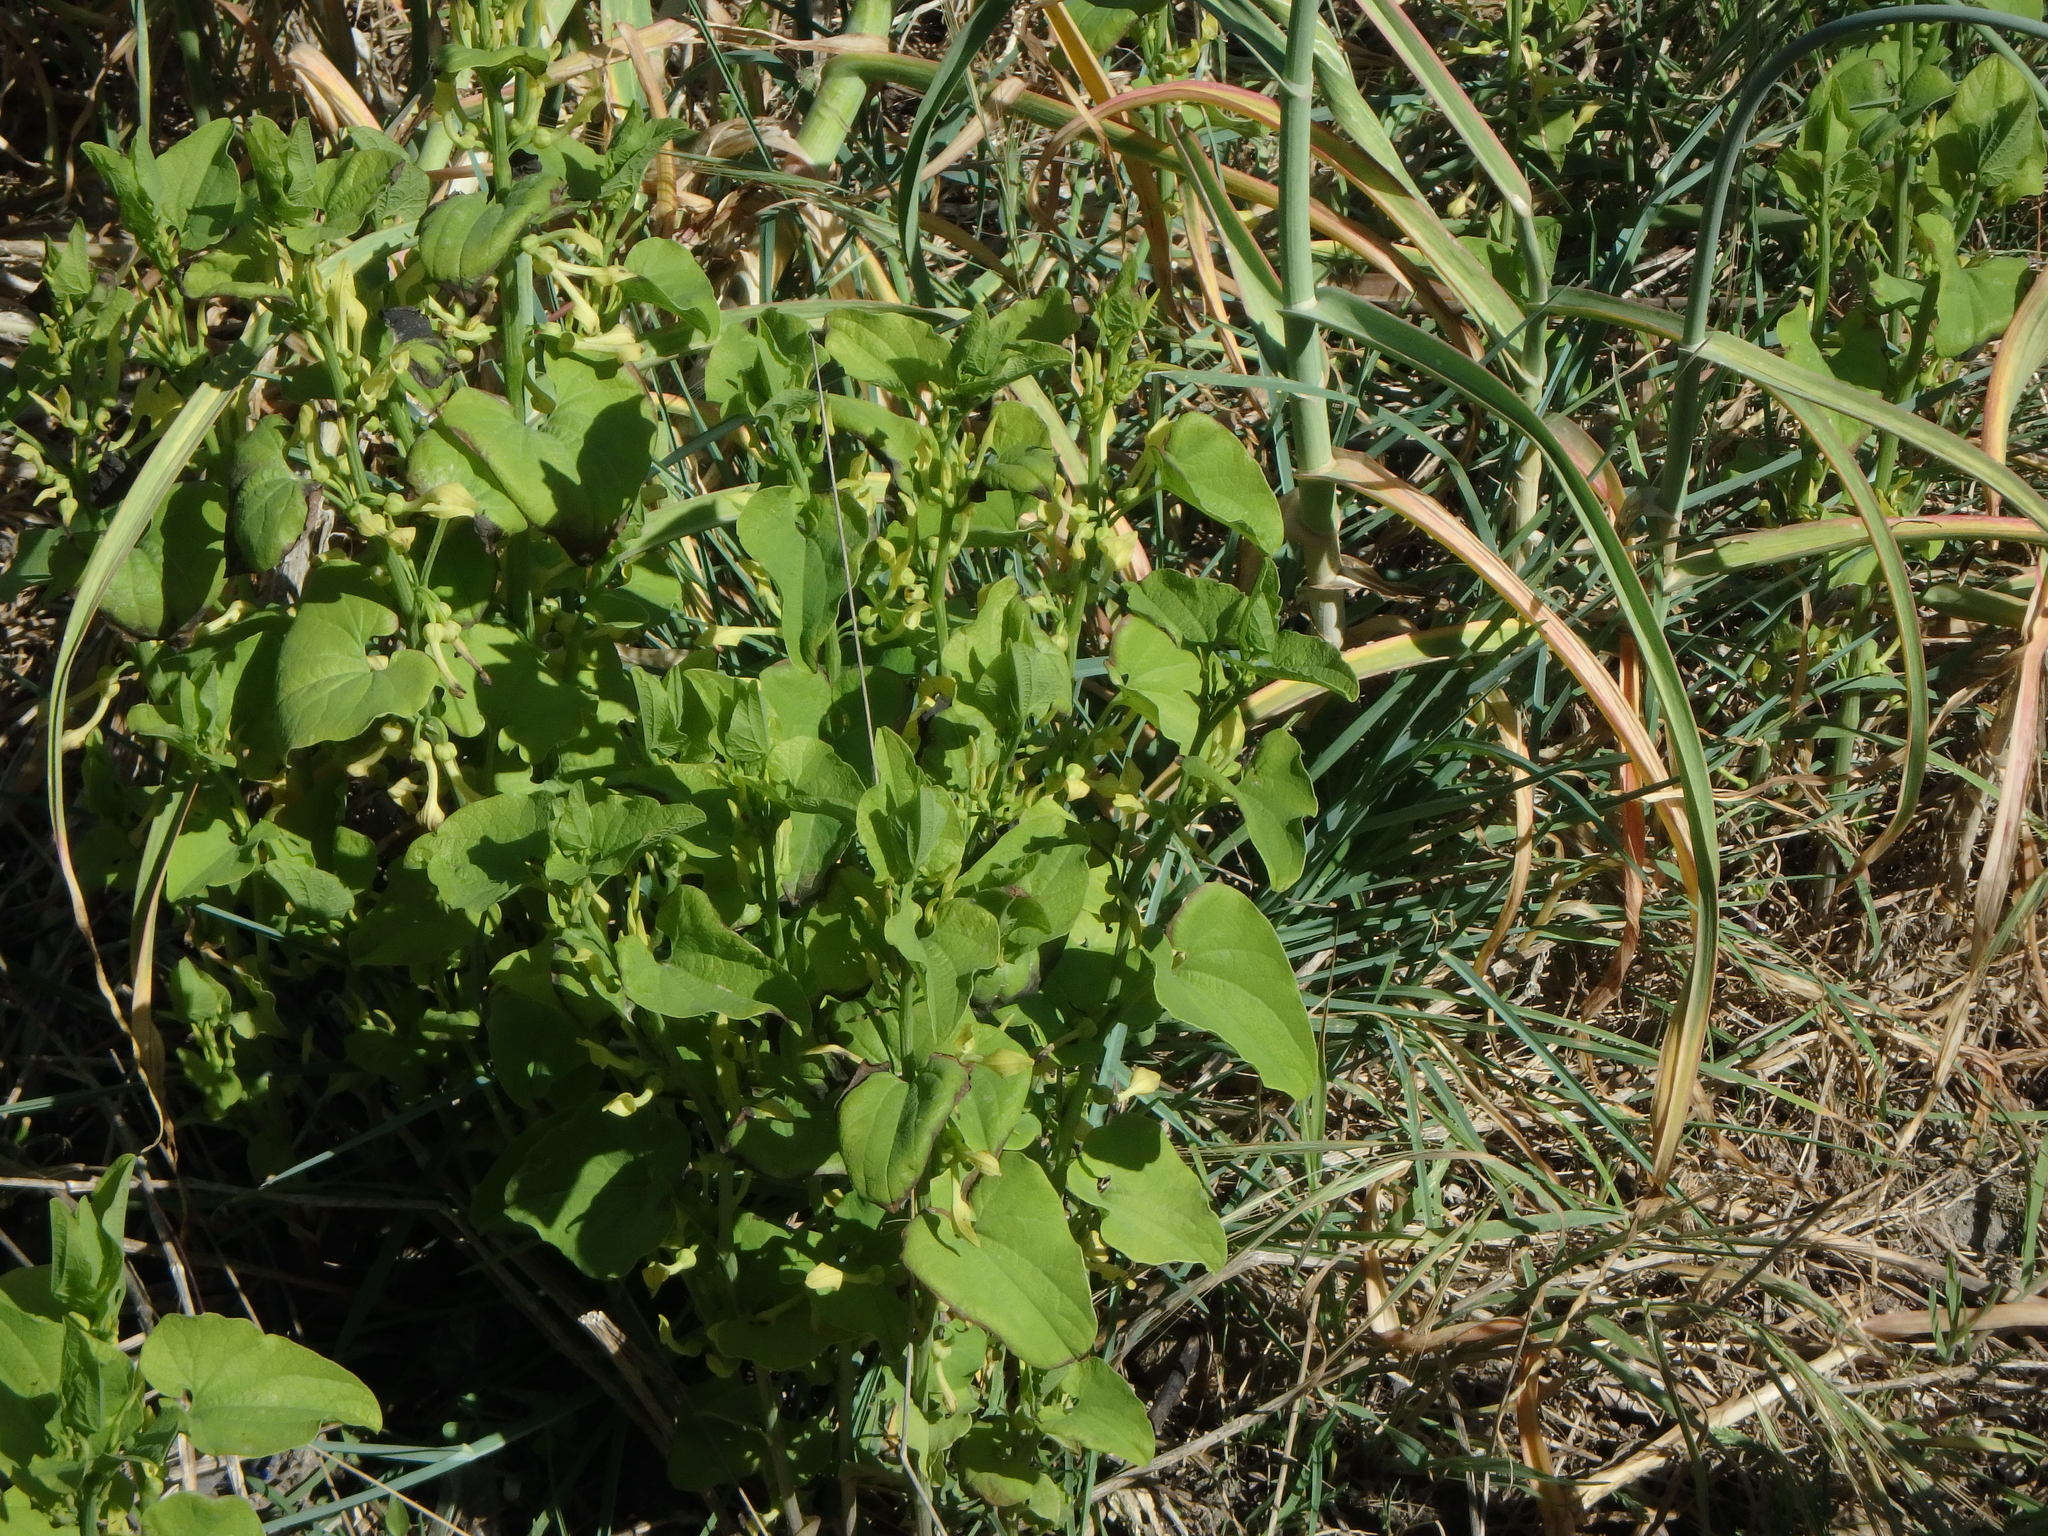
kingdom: Plantae
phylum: Tracheophyta
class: Magnoliopsida
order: Piperales
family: Aristolochiaceae
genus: Aristolochia
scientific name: Aristolochia clematitis
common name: Birthwort
